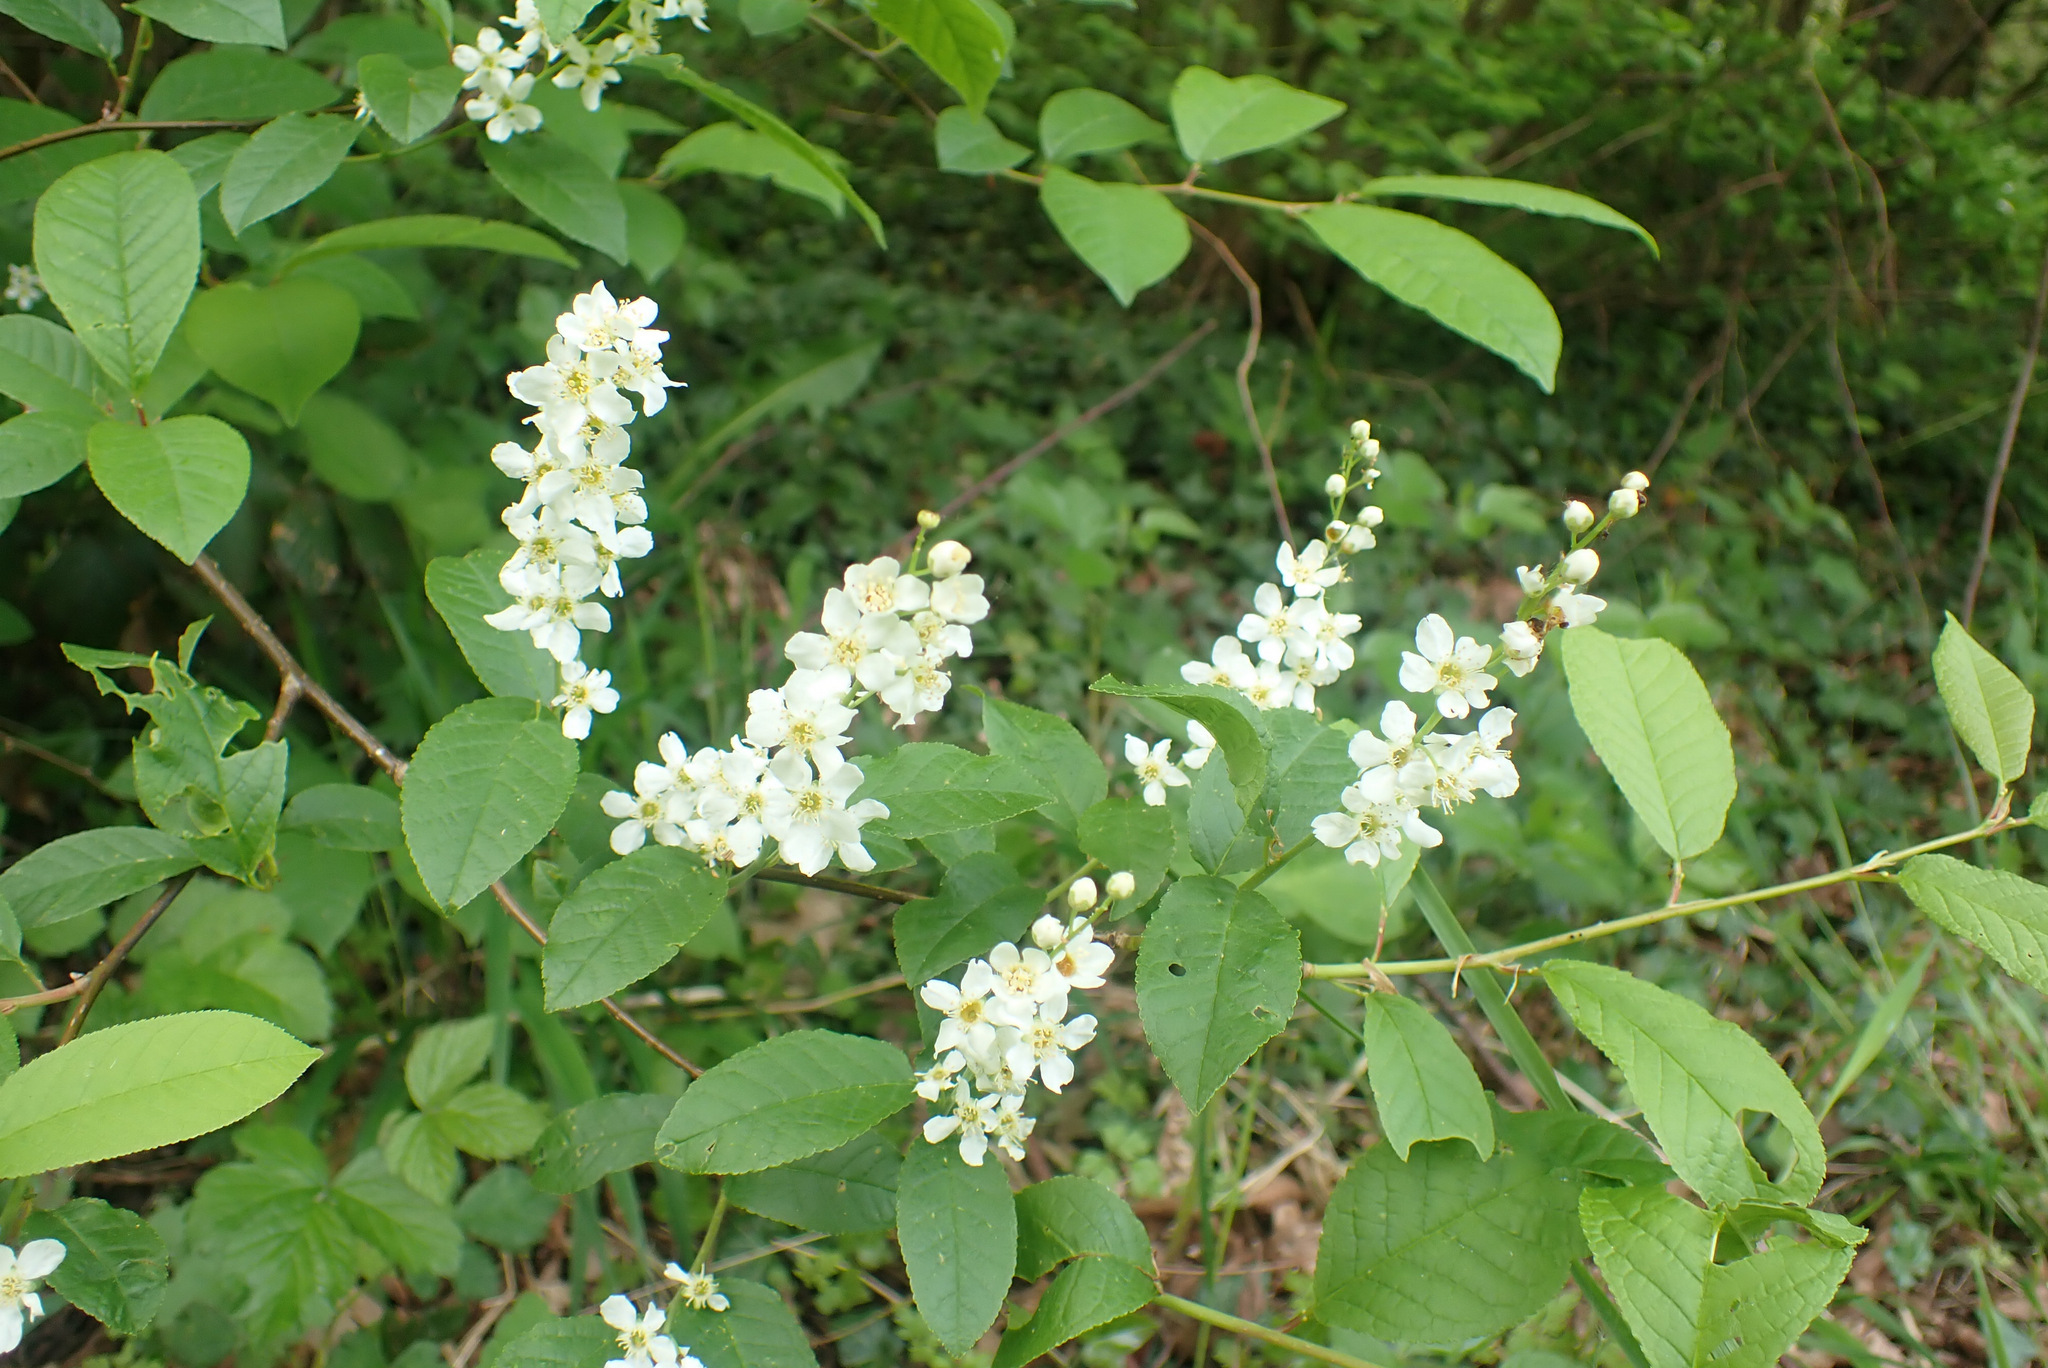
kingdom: Plantae
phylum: Tracheophyta
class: Magnoliopsida
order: Rosales
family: Rosaceae
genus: Prunus
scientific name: Prunus padus
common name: Bird cherry
